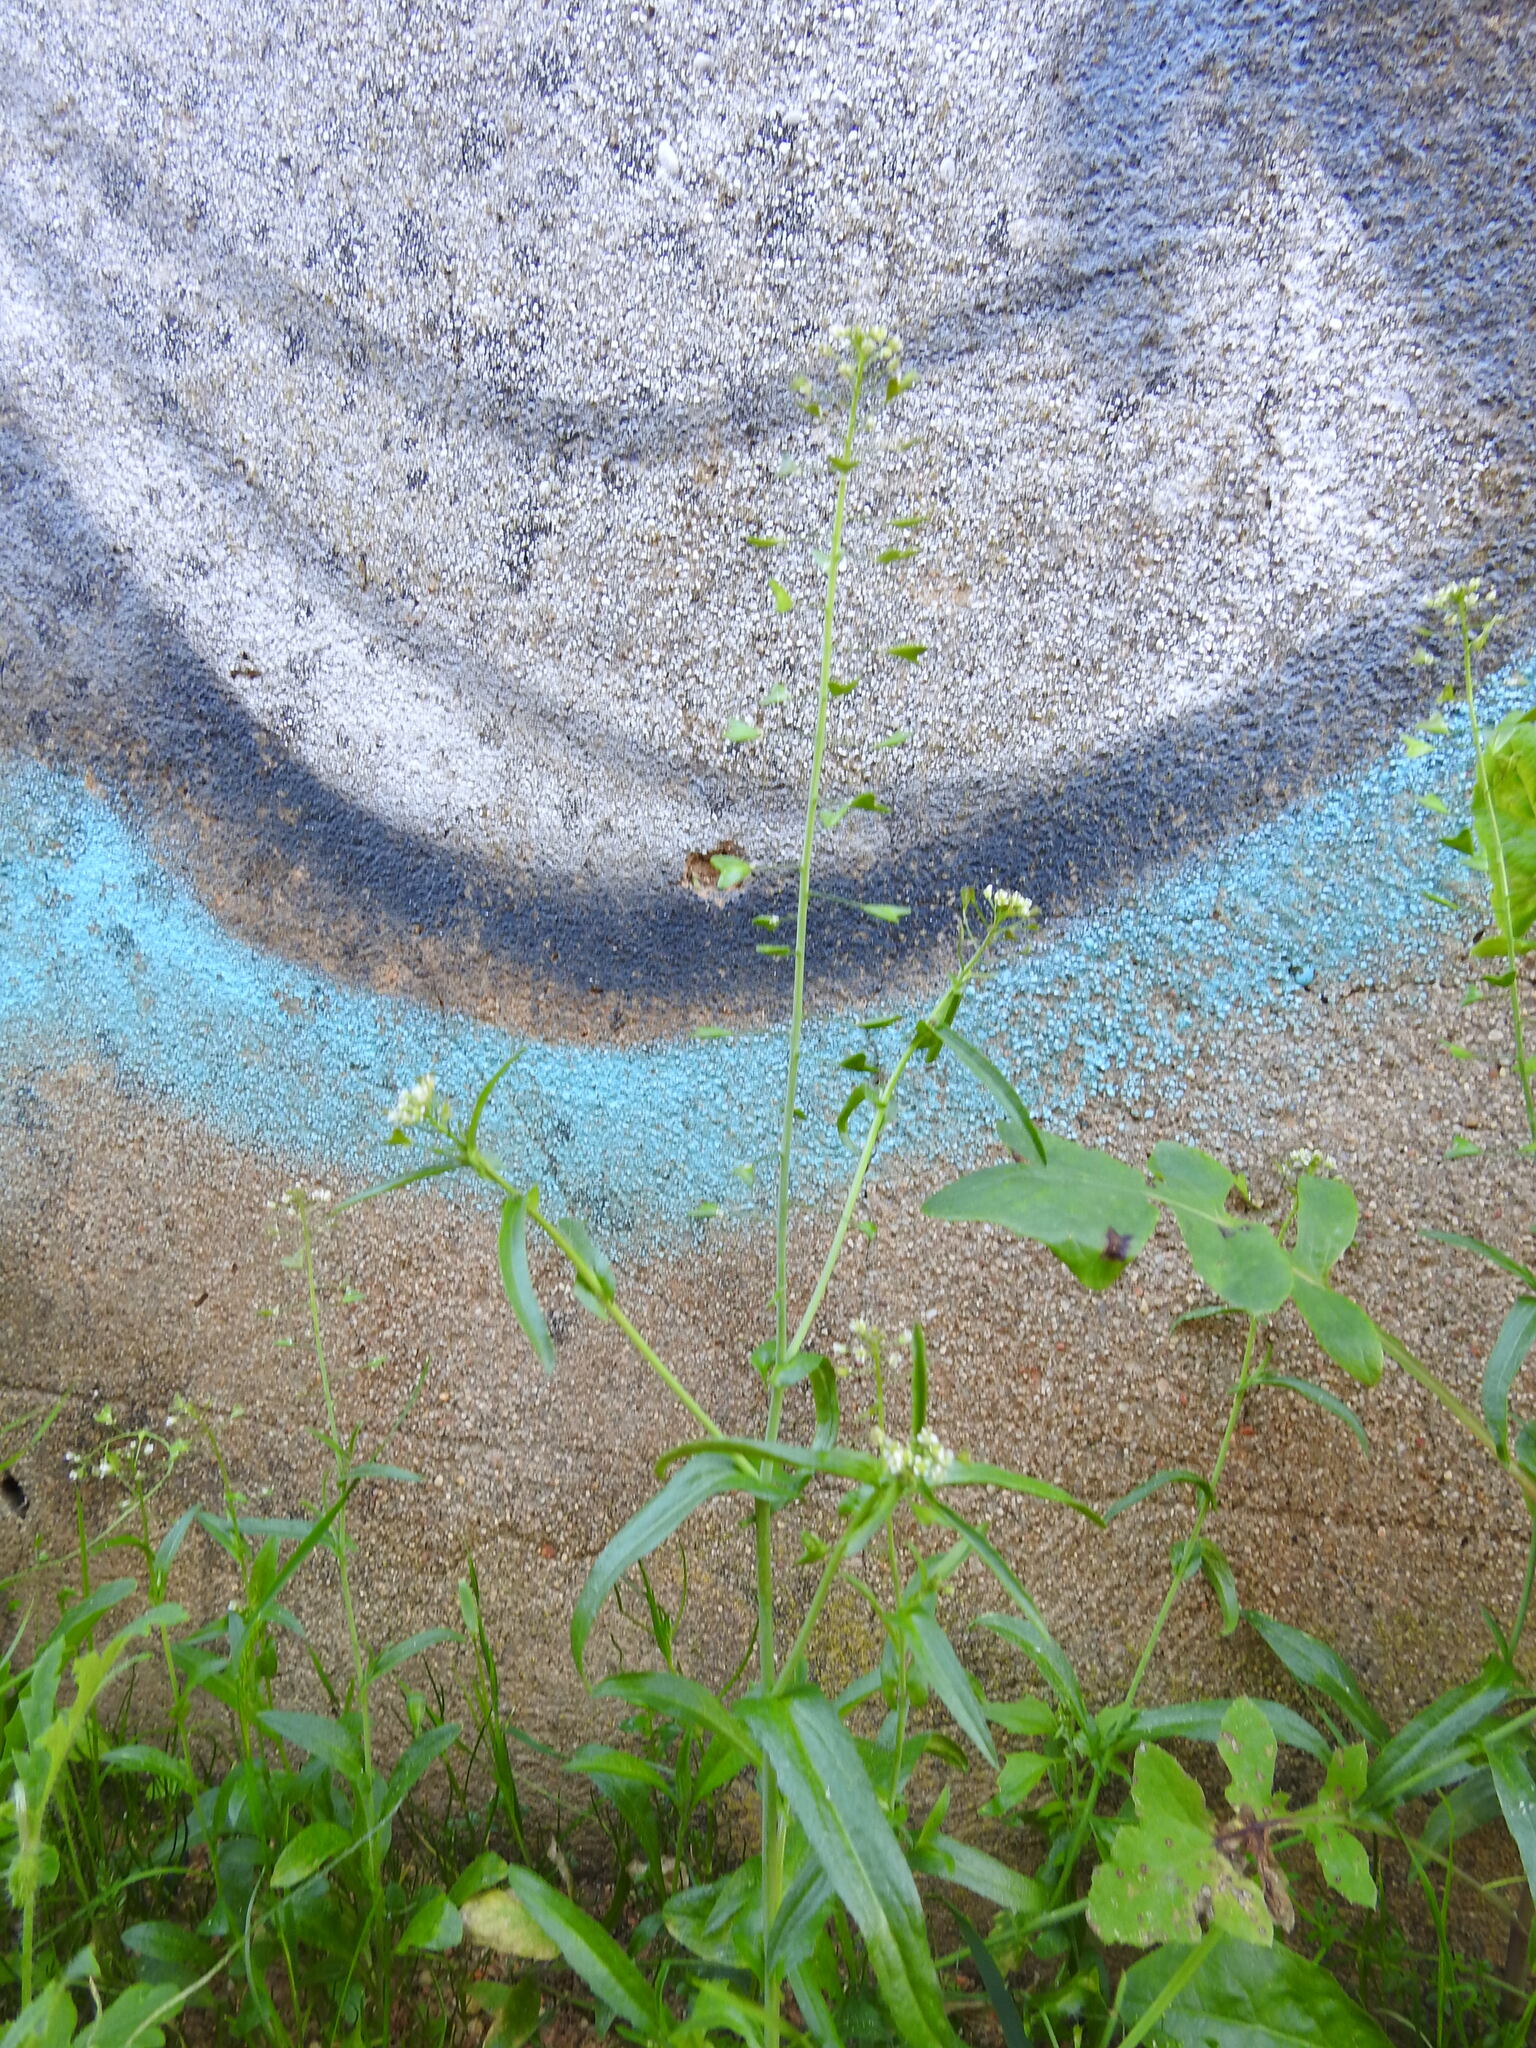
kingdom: Plantae
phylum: Tracheophyta
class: Magnoliopsida
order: Brassicales
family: Brassicaceae
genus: Capsella
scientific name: Capsella bursa-pastoris
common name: Shepherd's purse
